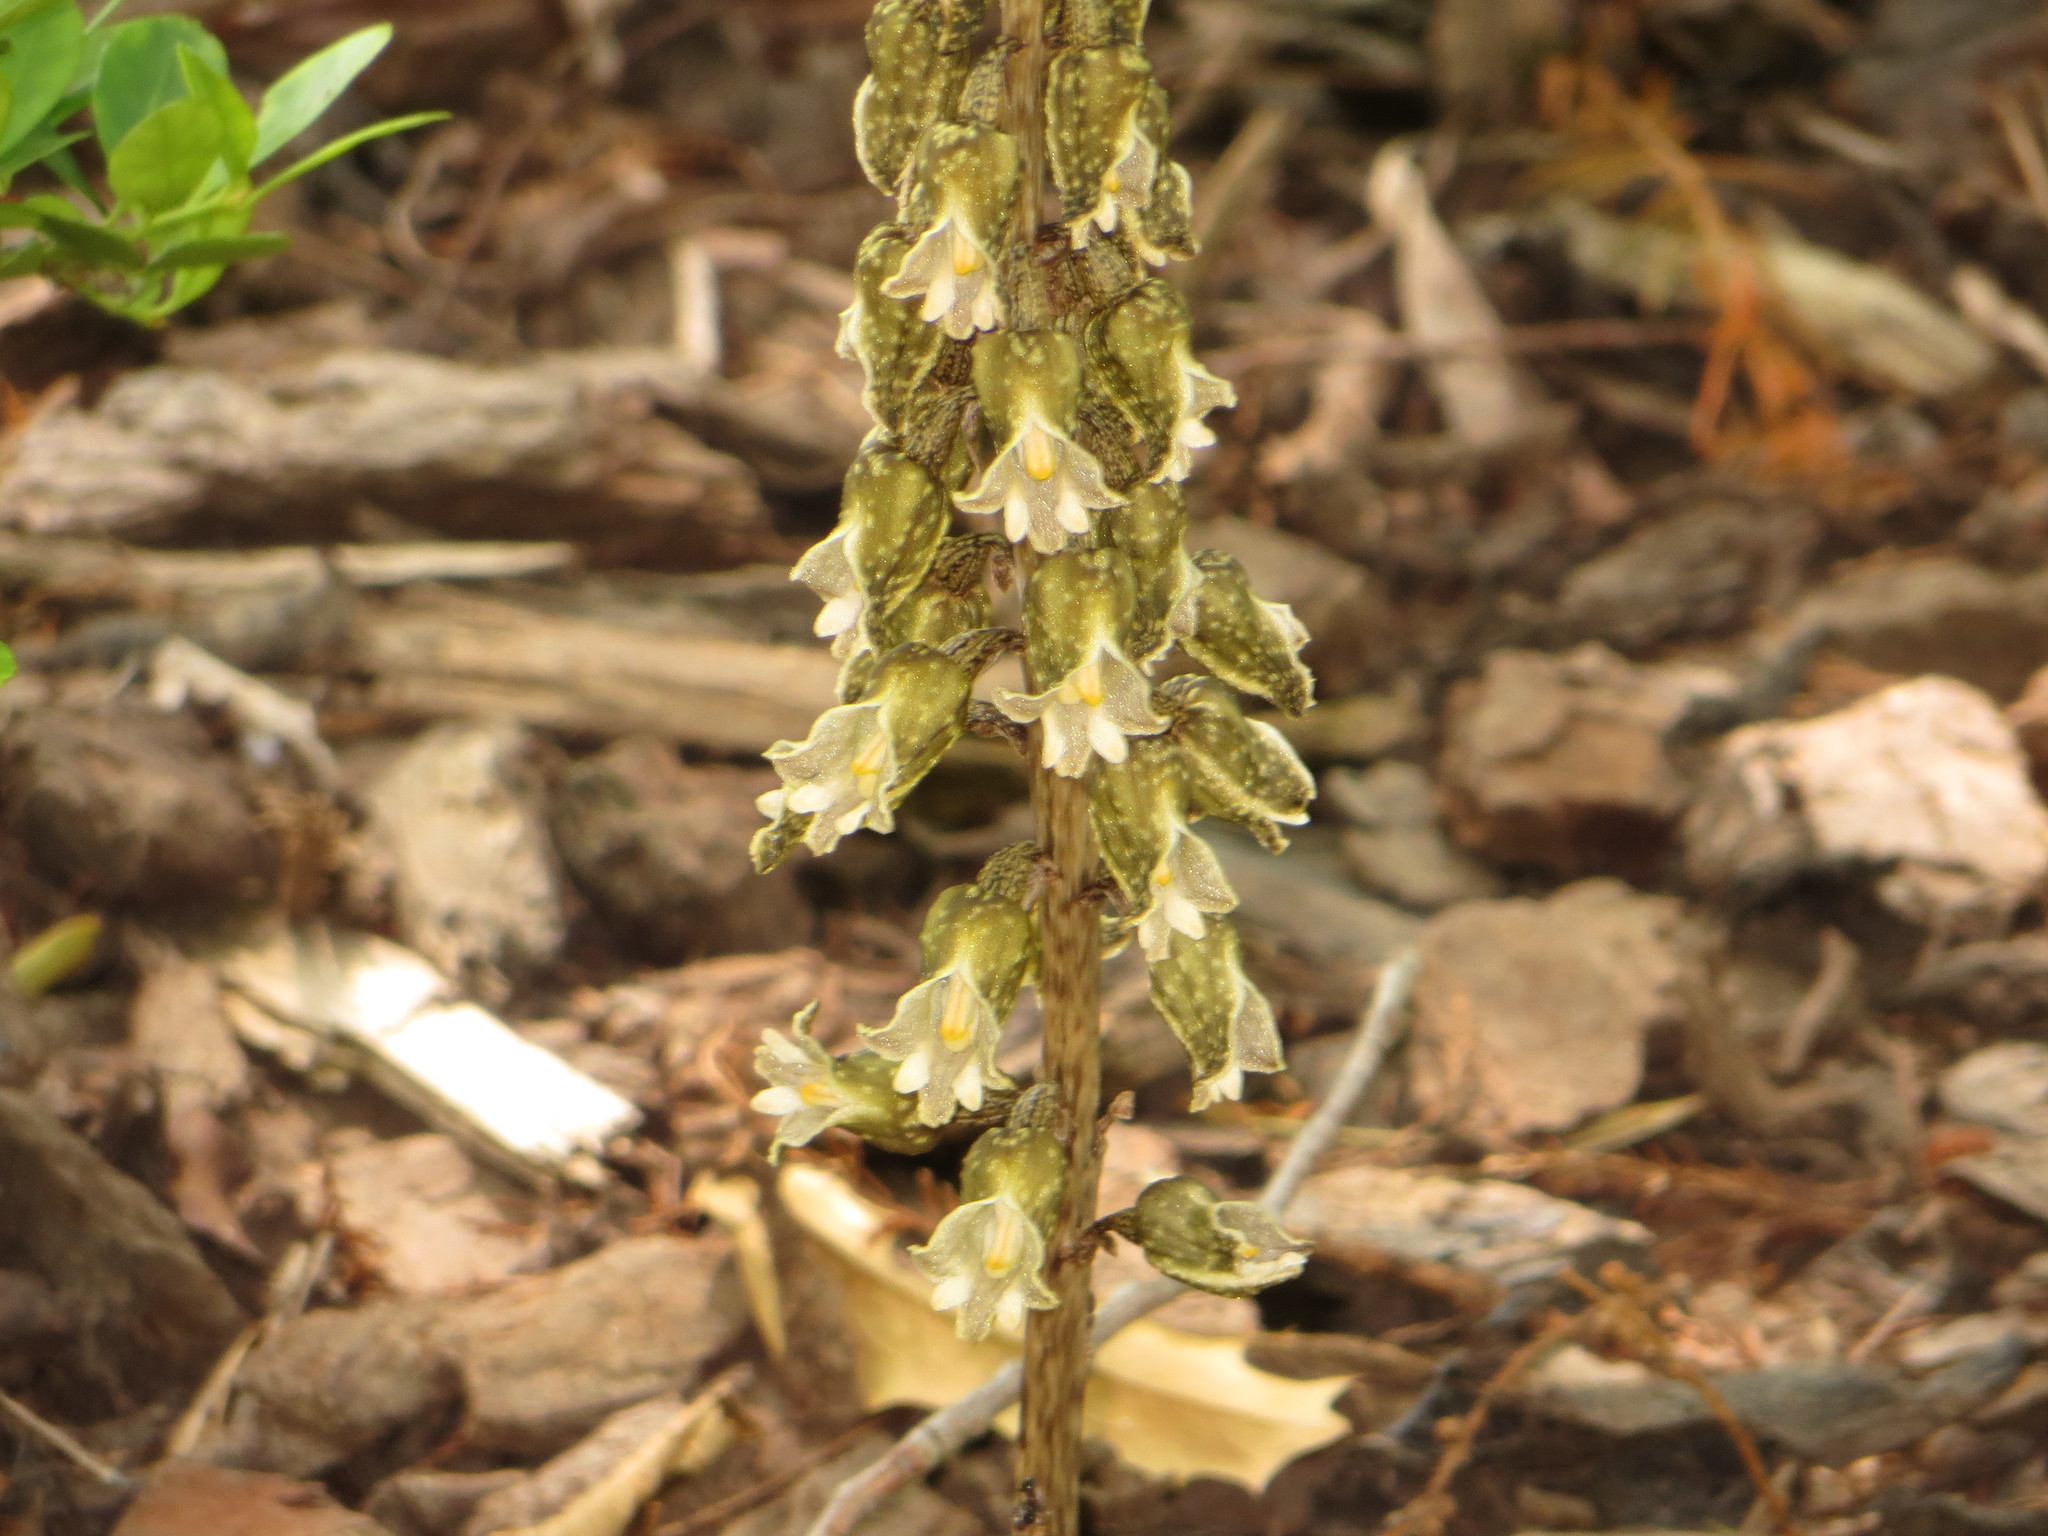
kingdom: Plantae
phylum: Tracheophyta
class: Liliopsida
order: Asparagales
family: Orchidaceae
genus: Gastrodia
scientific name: Gastrodia molloyi
